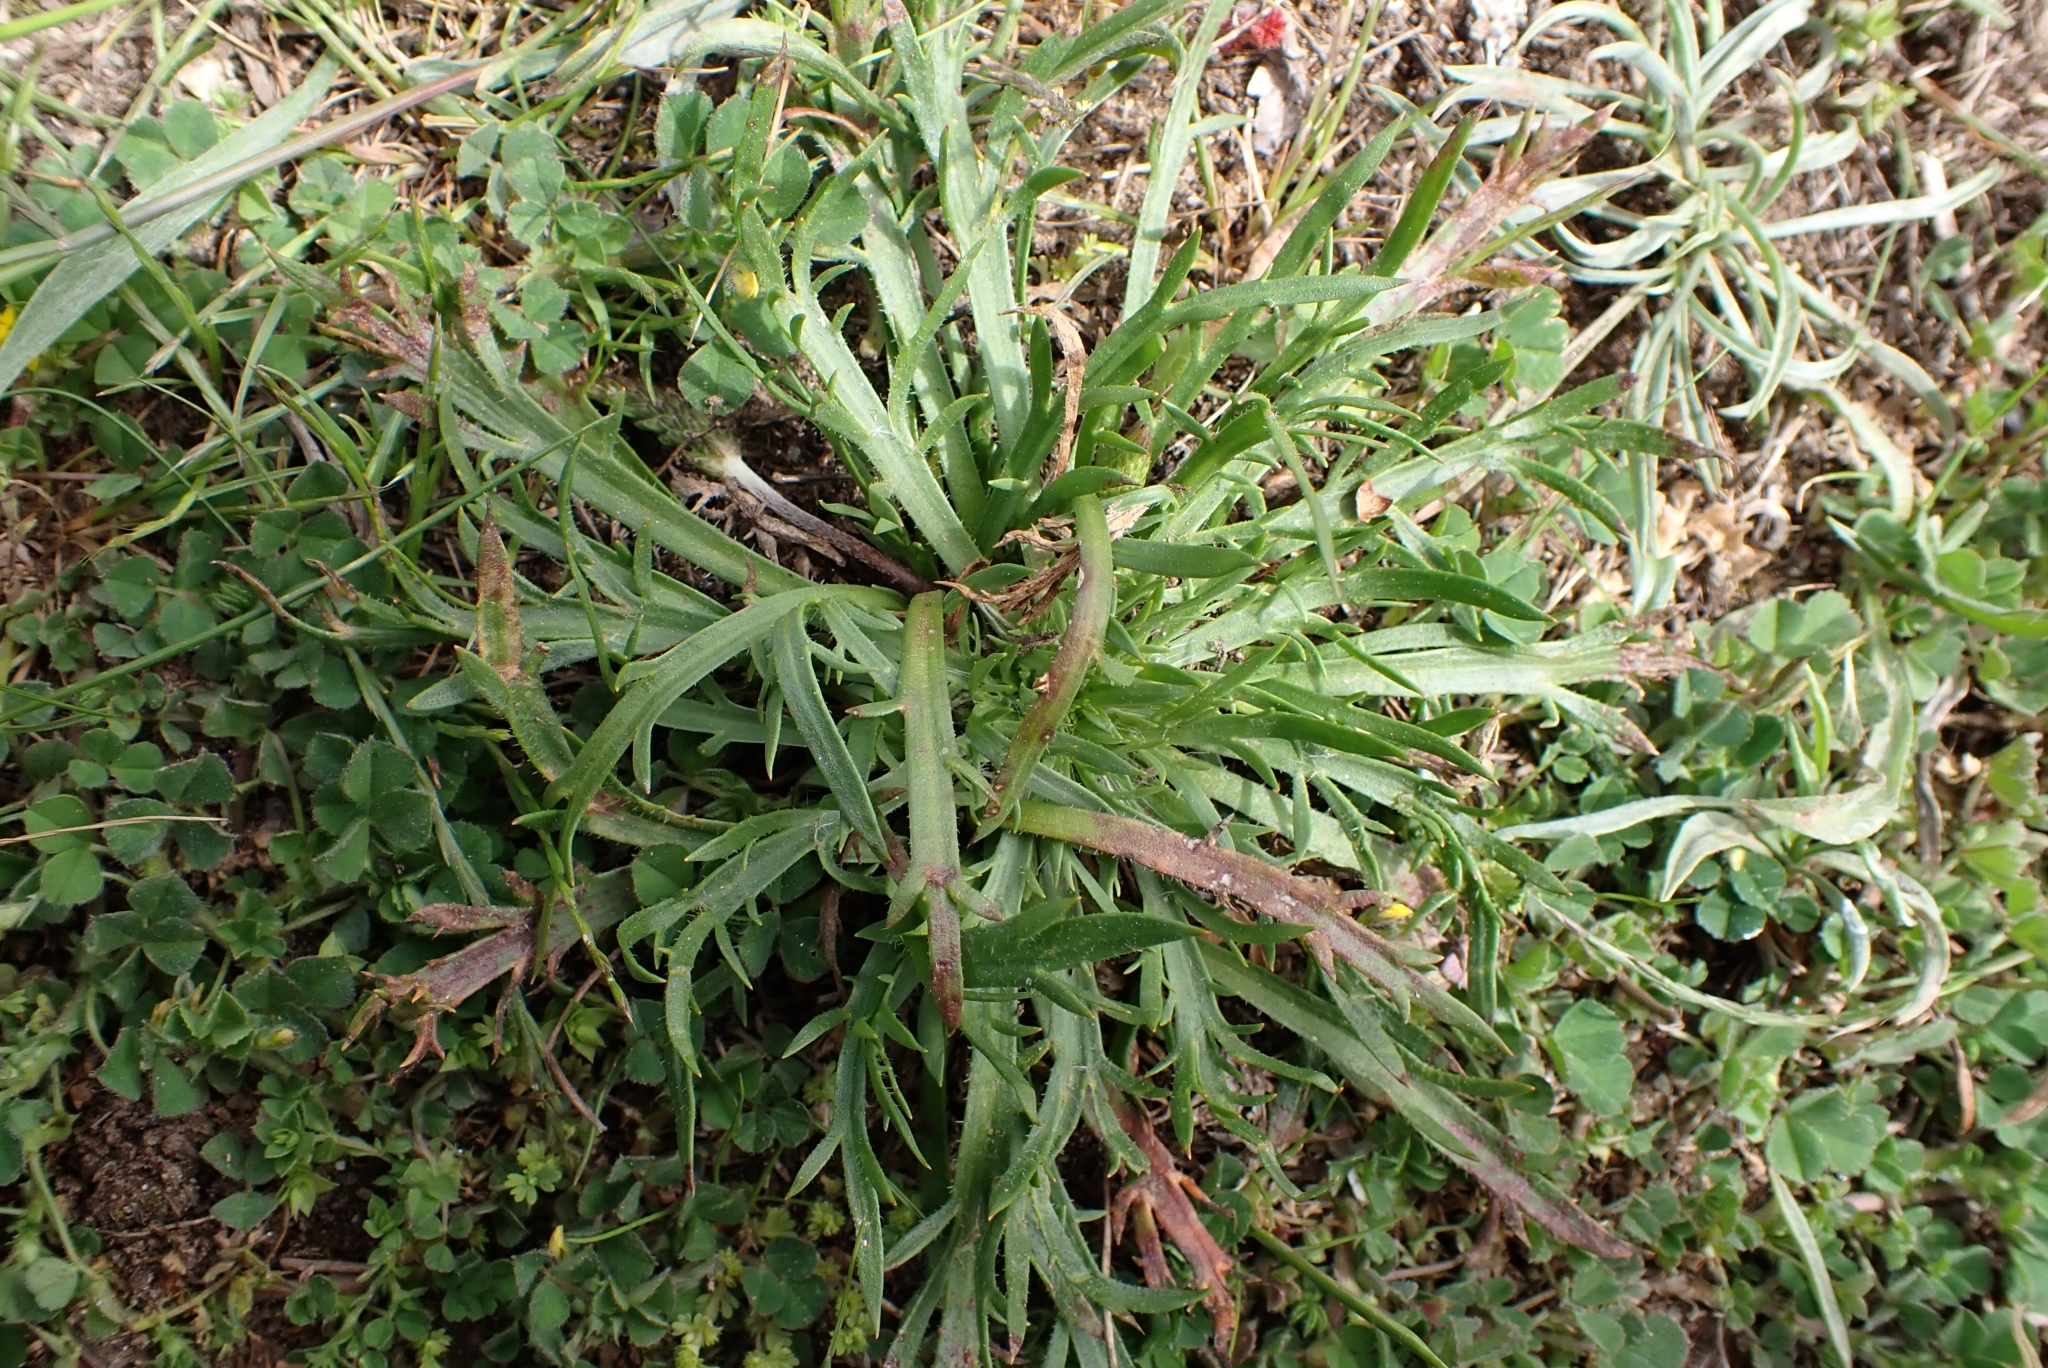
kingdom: Plantae
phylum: Tracheophyta
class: Magnoliopsida
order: Lamiales
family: Plantaginaceae
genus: Plantago
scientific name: Plantago coronopus
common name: Buck's-horn plantain
